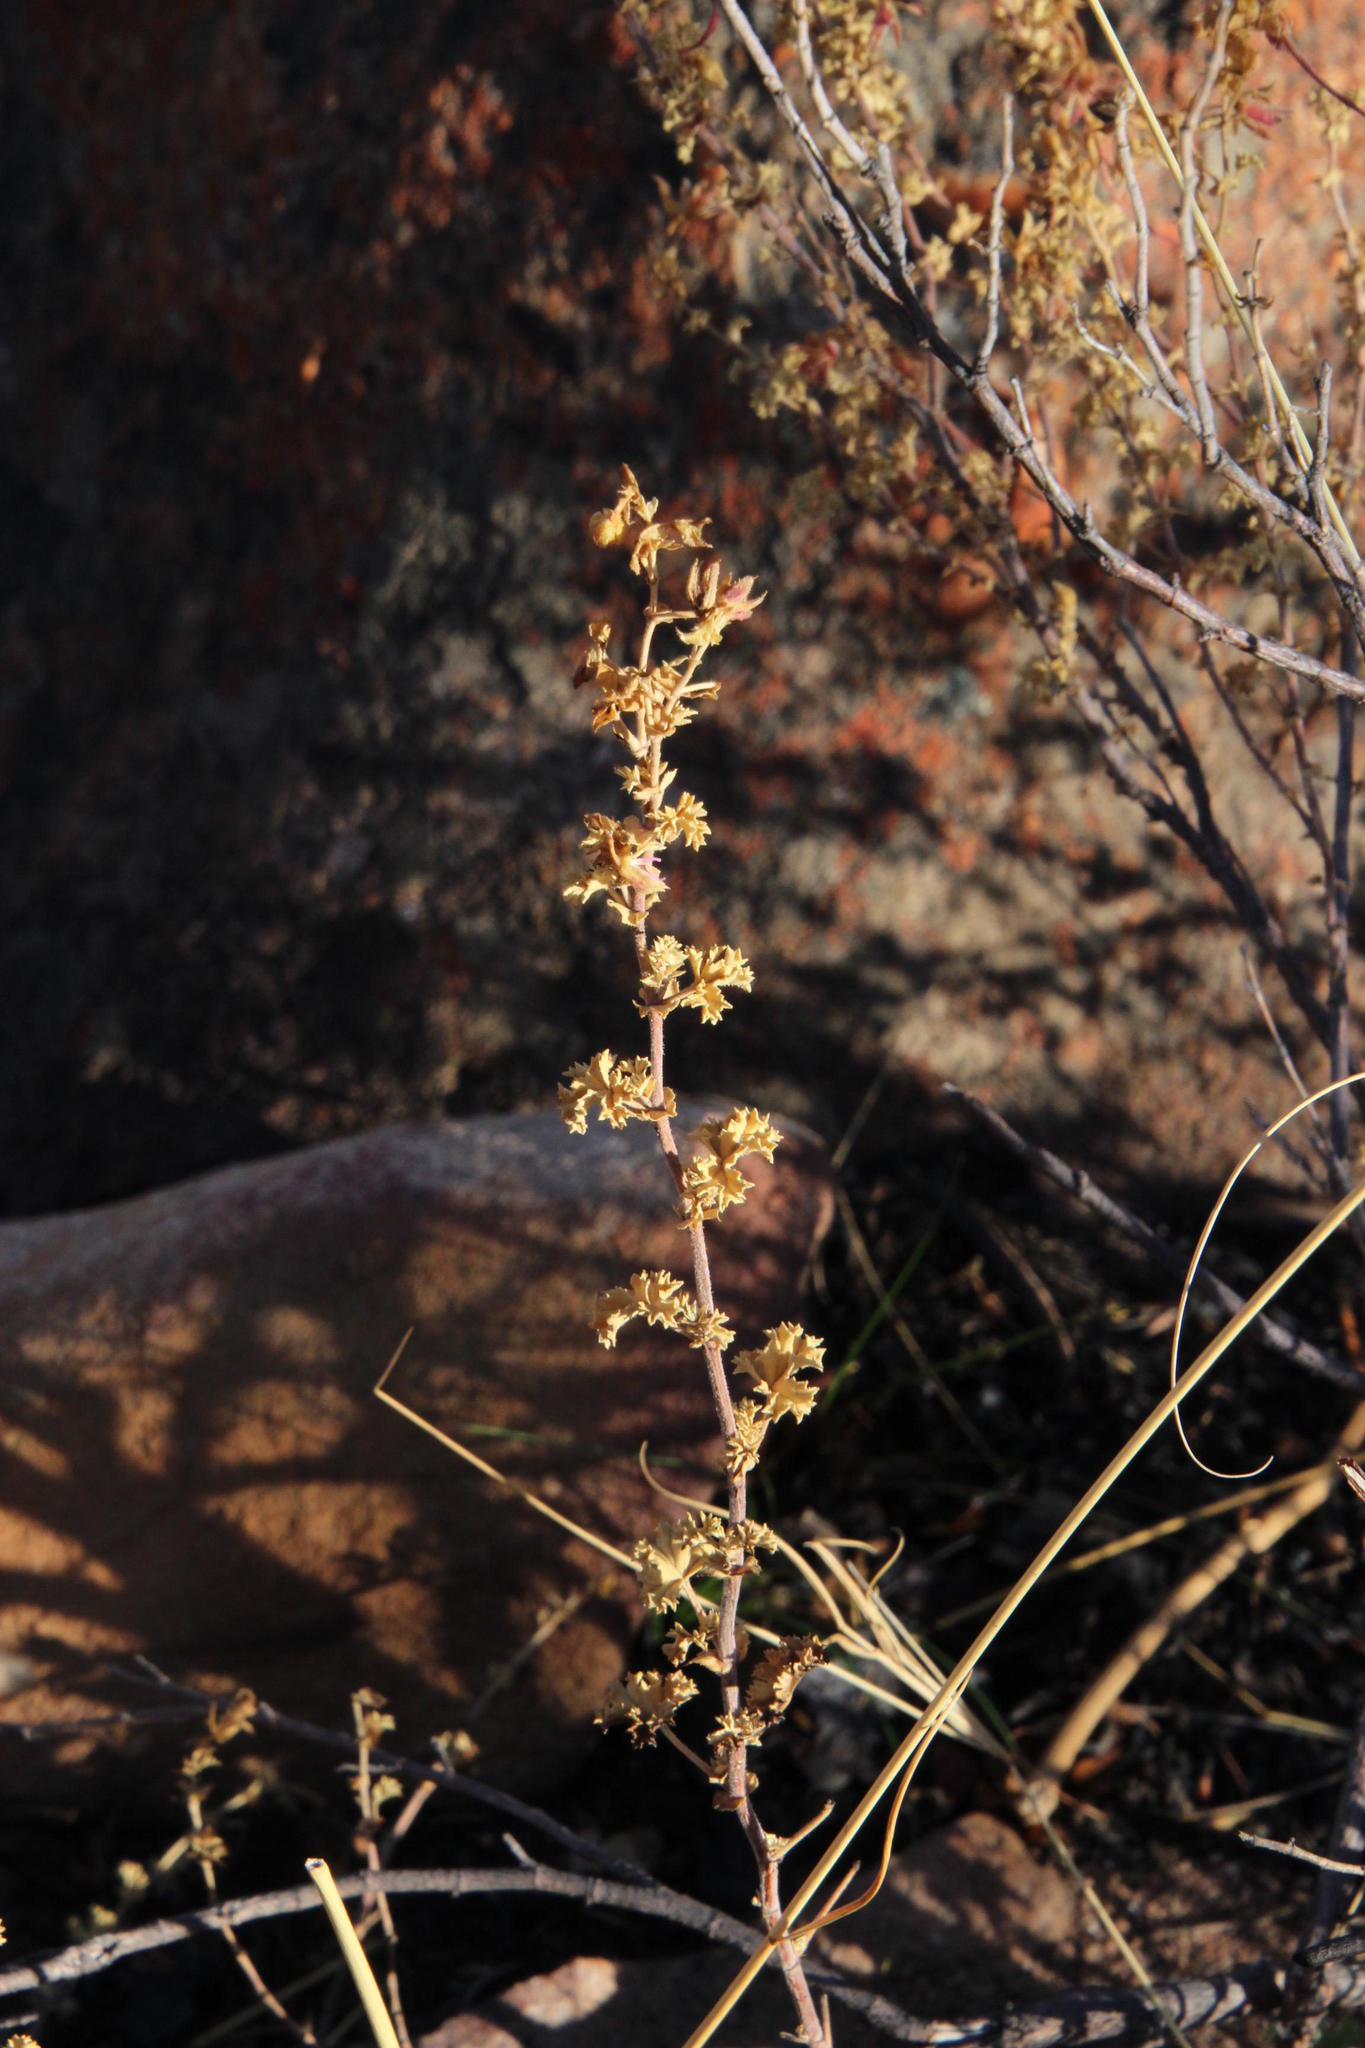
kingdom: Plantae
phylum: Tracheophyta
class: Magnoliopsida
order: Geraniales
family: Geraniaceae
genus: Pelargonium
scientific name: Pelargonium englerianum
